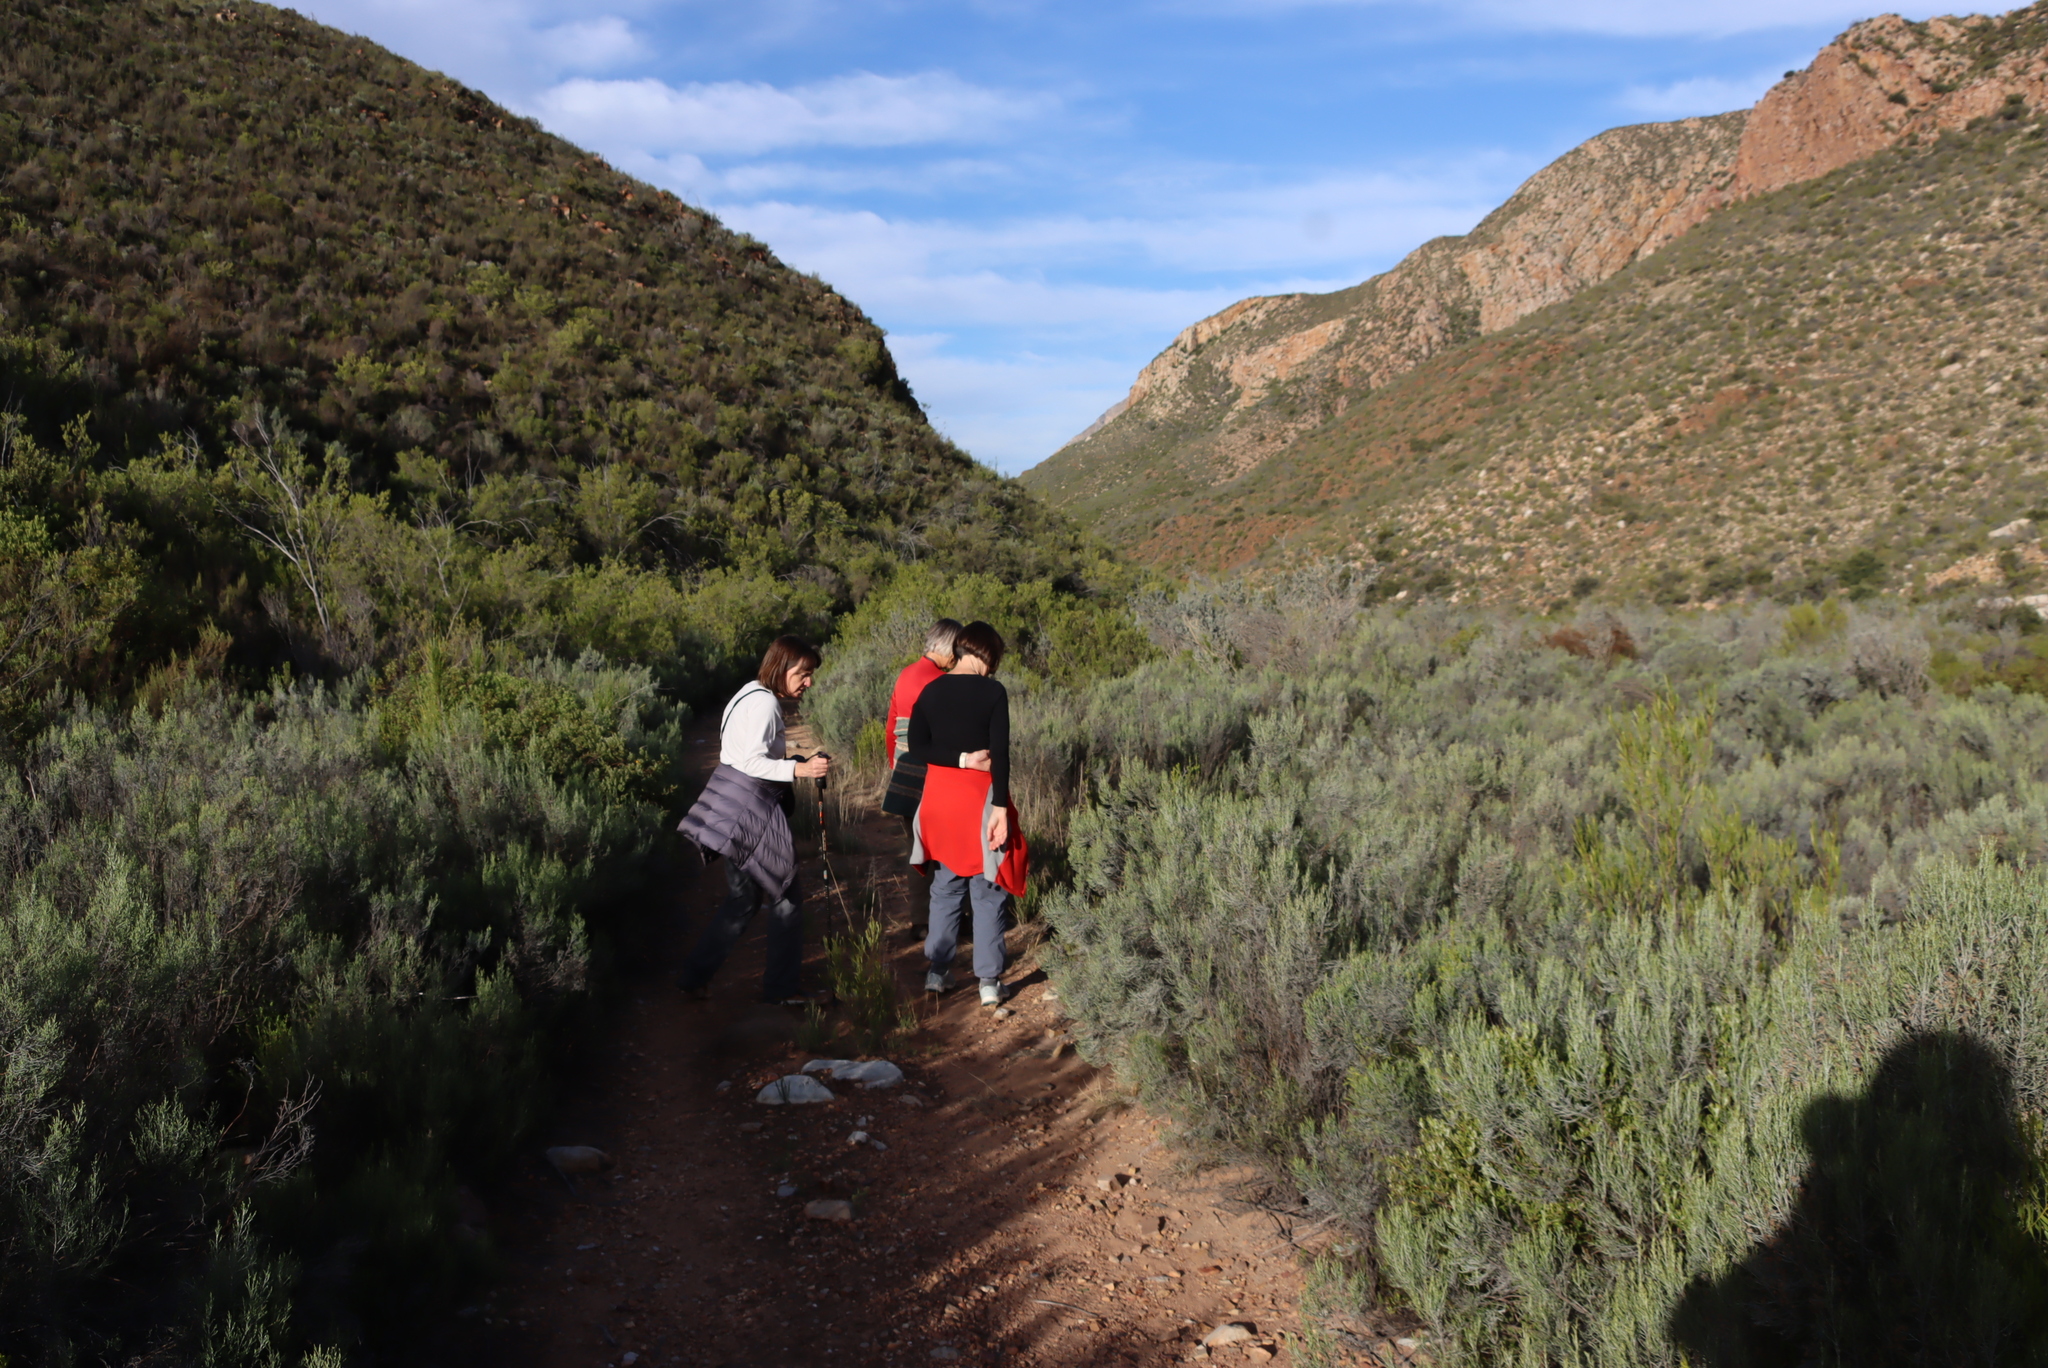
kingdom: Plantae
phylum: Tracheophyta
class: Magnoliopsida
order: Asterales
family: Asteraceae
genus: Dicerothamnus
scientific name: Dicerothamnus rhinocerotis
